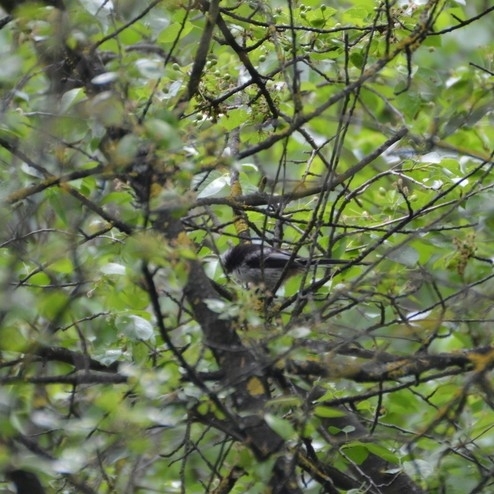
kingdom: Animalia
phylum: Chordata
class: Aves
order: Passeriformes
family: Aegithalidae
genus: Aegithalos
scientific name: Aegithalos caudatus
